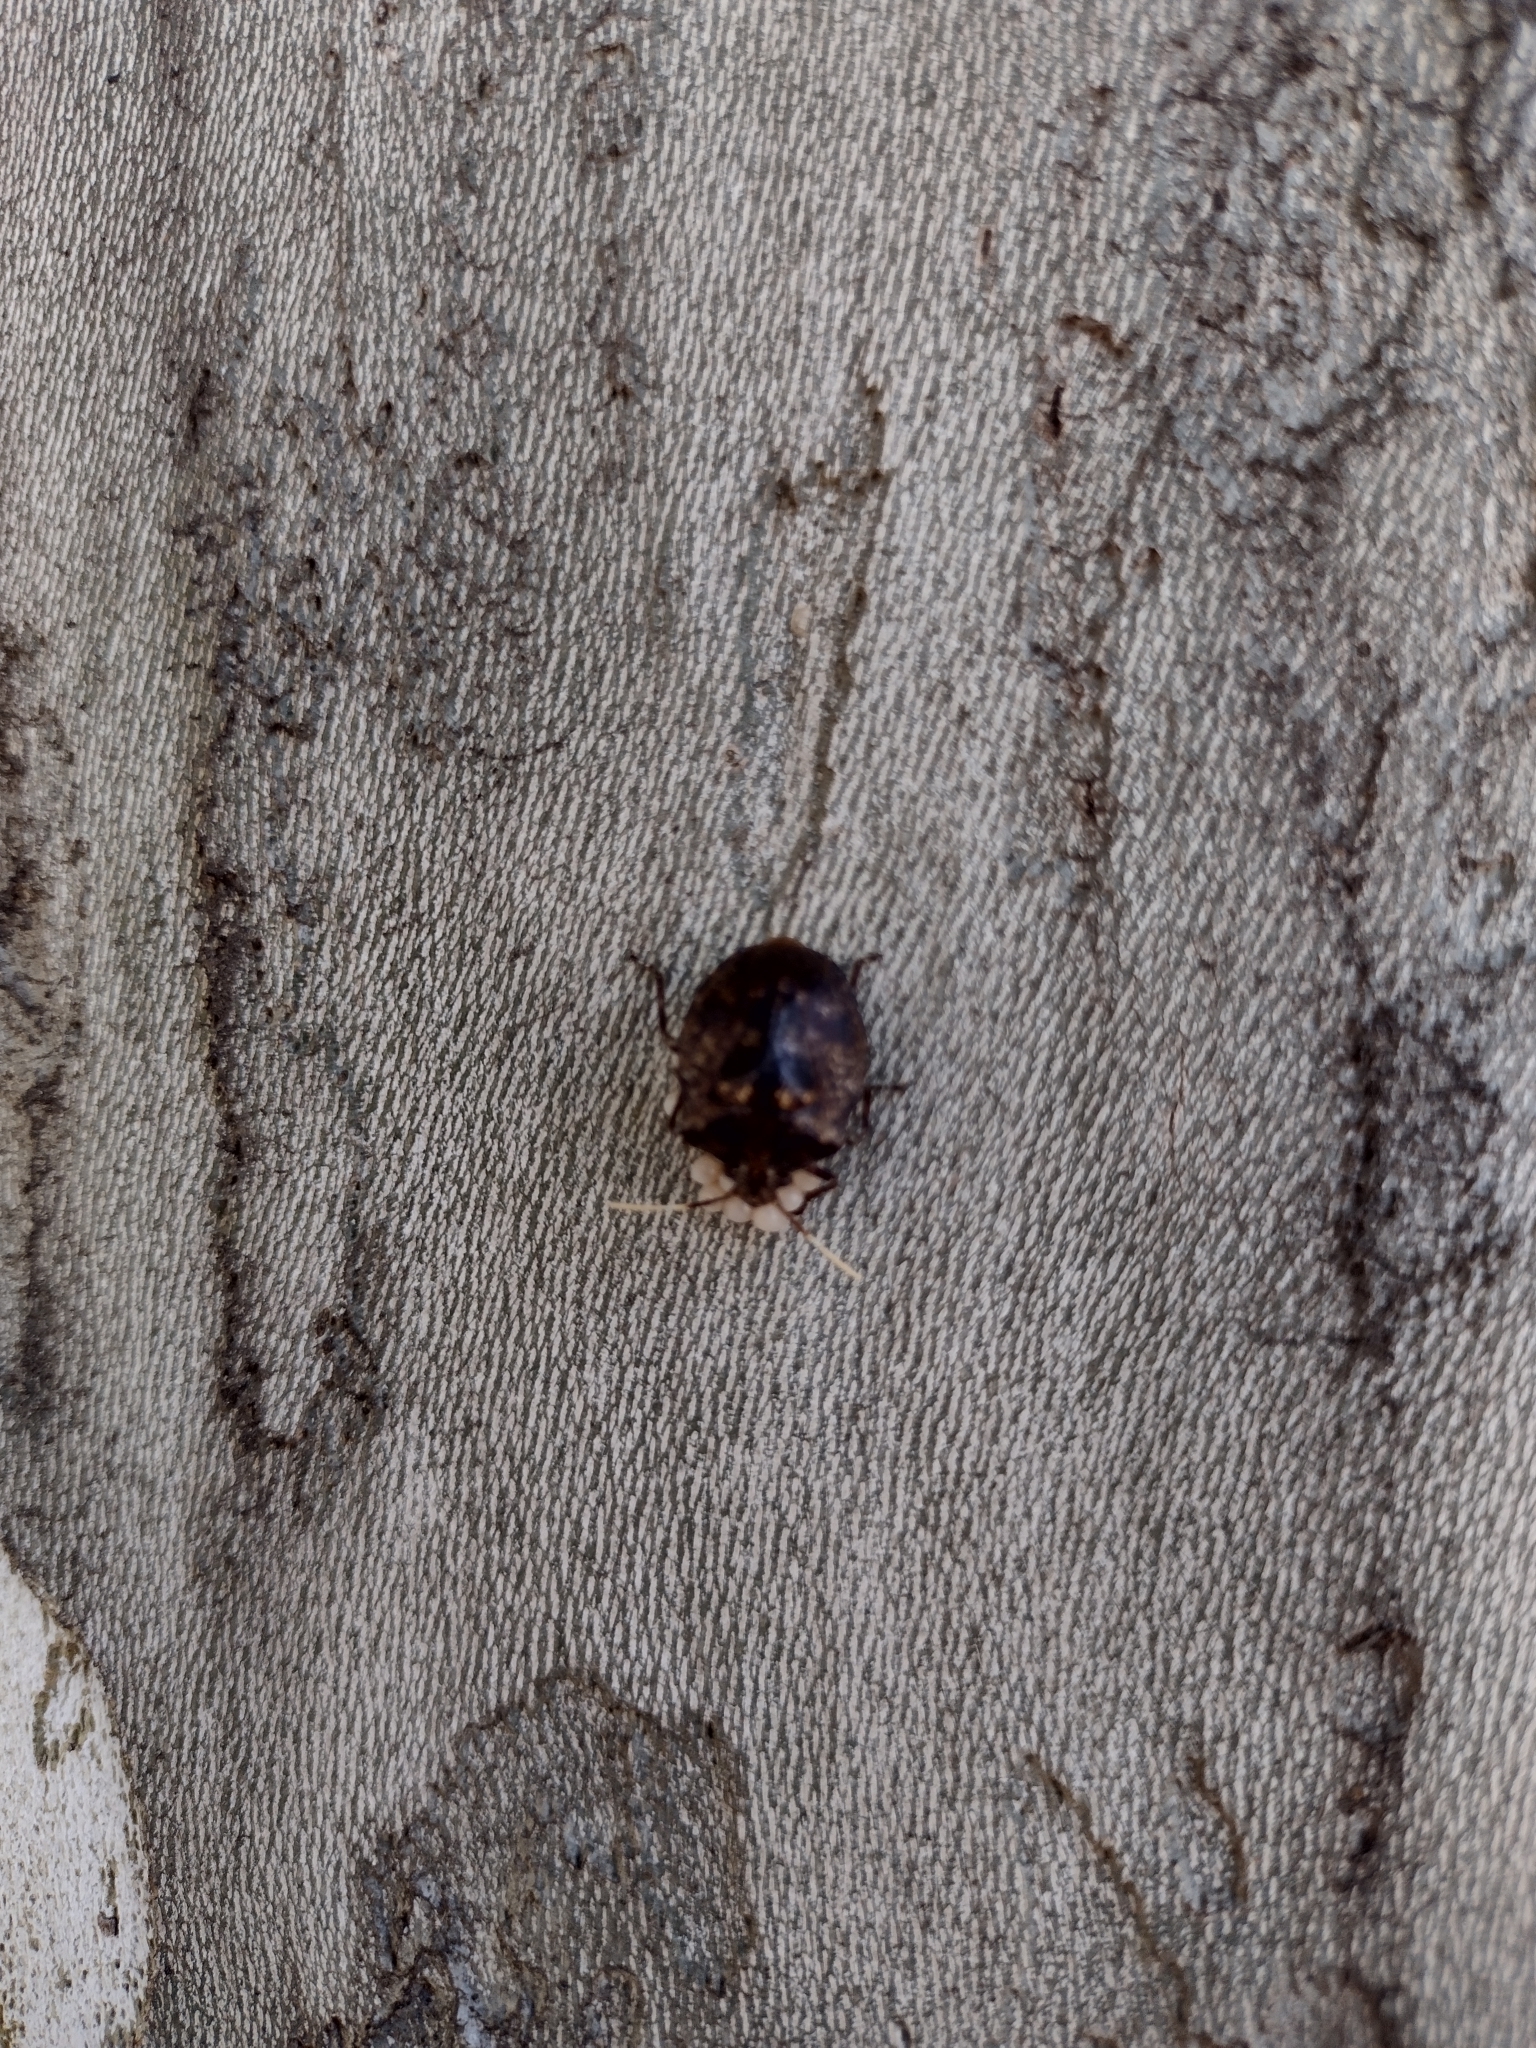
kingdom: Animalia
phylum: Arthropoda
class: Insecta
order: Hemiptera
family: Pentatomidae
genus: Antiteuchus
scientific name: Antiteuchus mixtus
